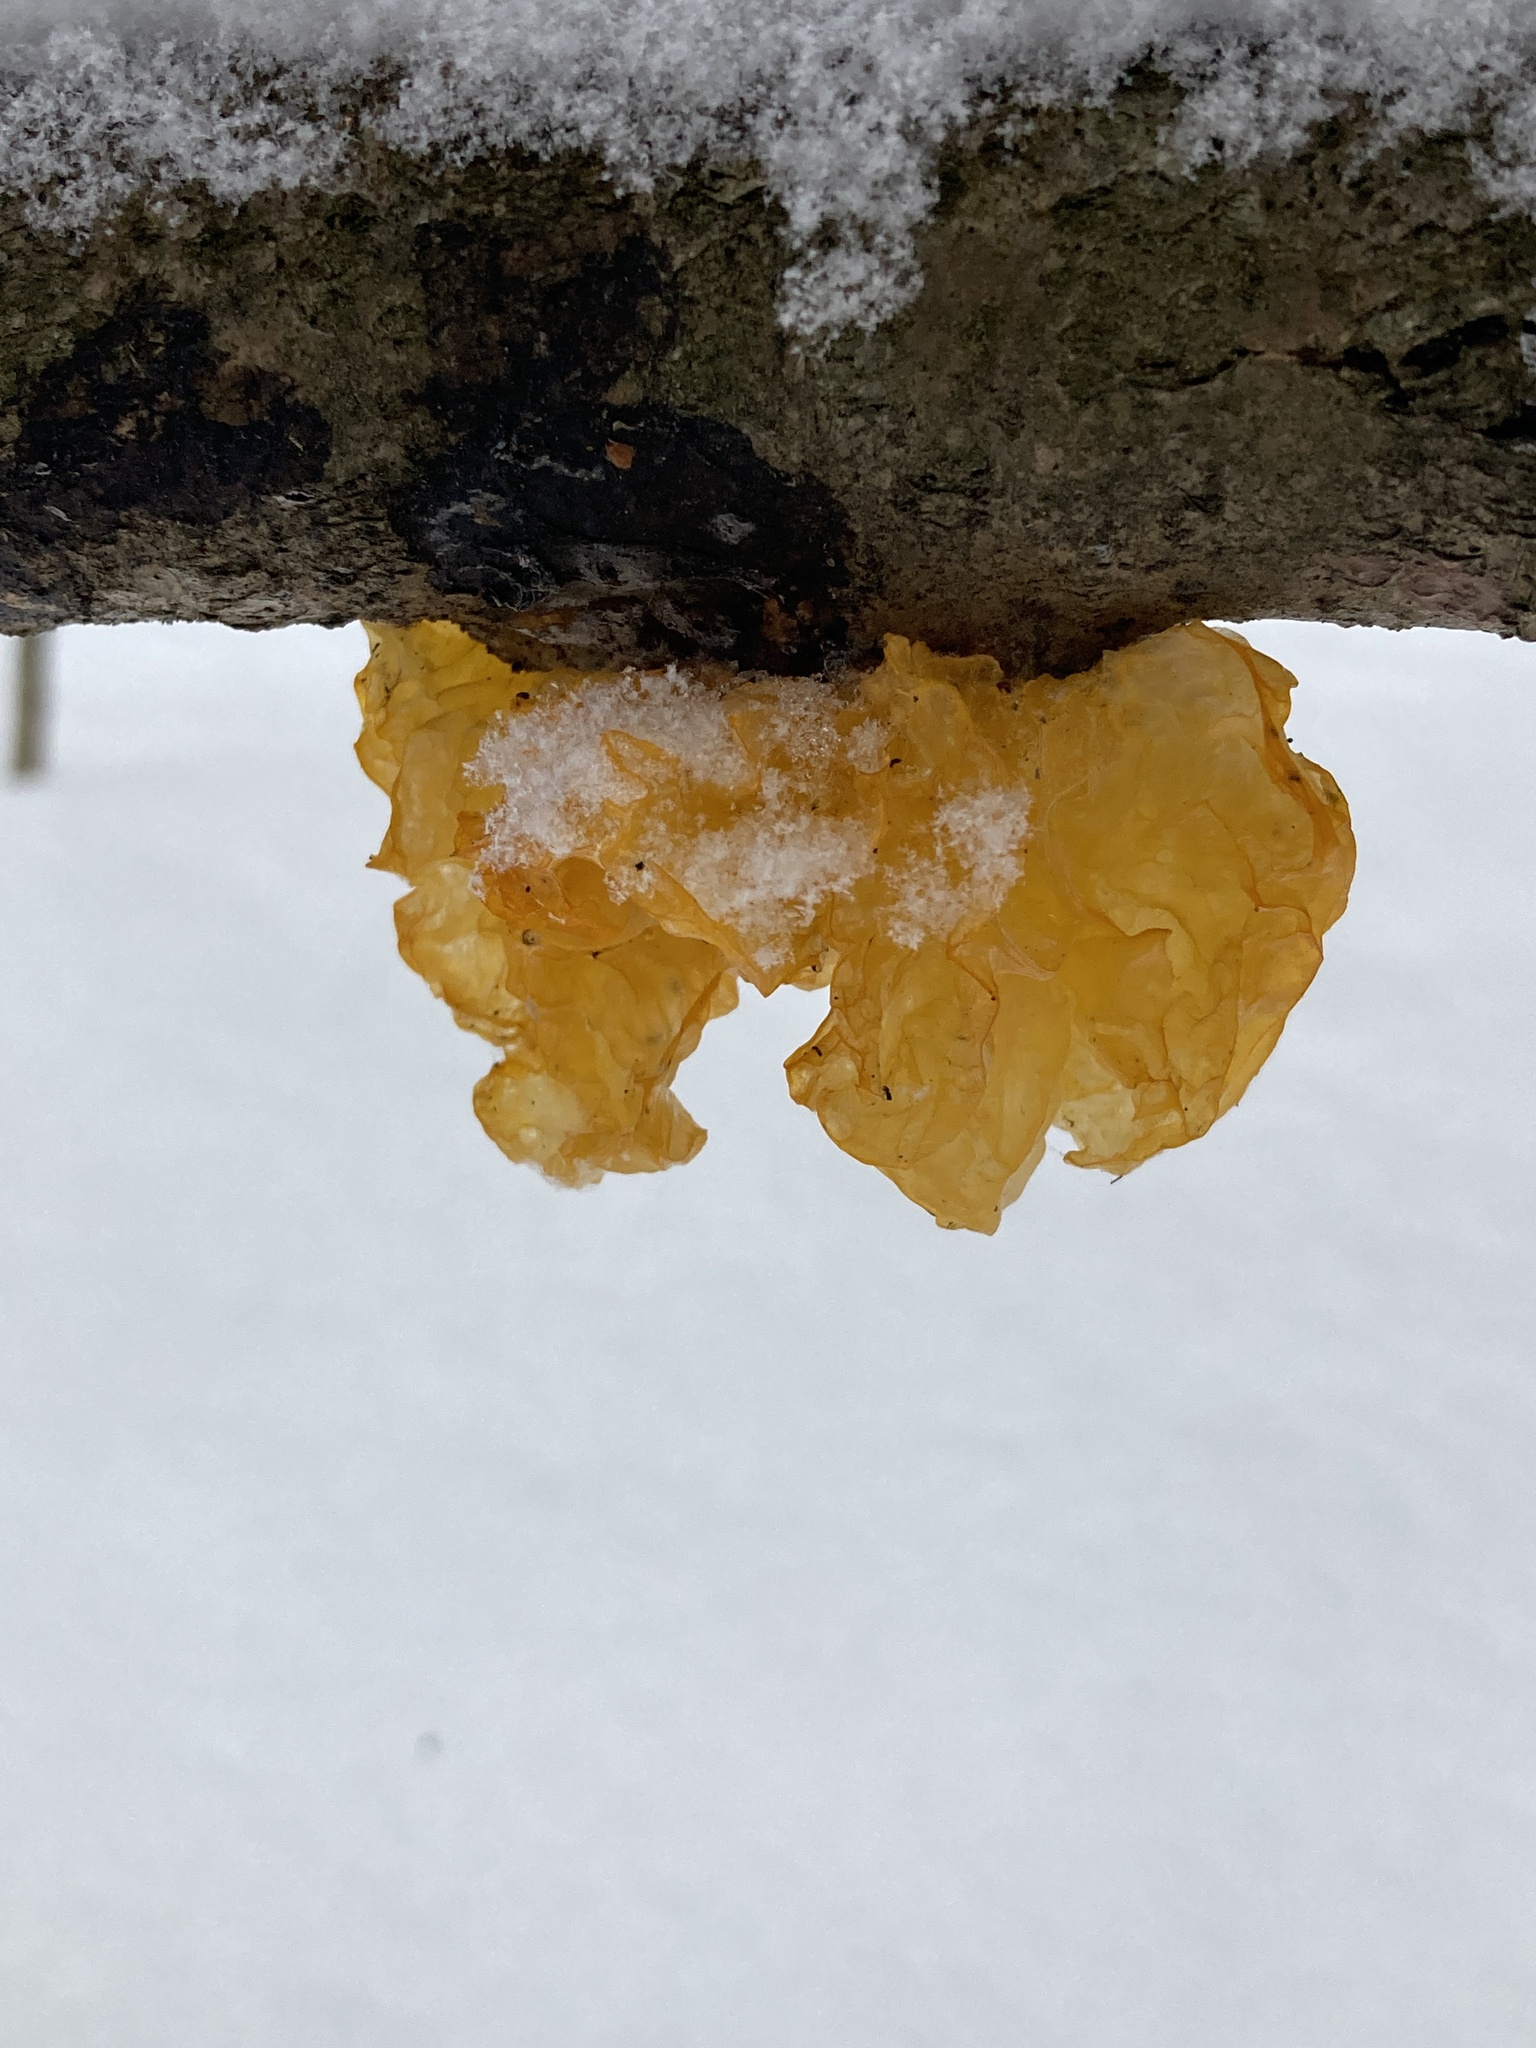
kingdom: Fungi
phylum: Basidiomycota
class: Tremellomycetes
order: Tremellales
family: Tremellaceae
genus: Tremella
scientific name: Tremella mesenterica
